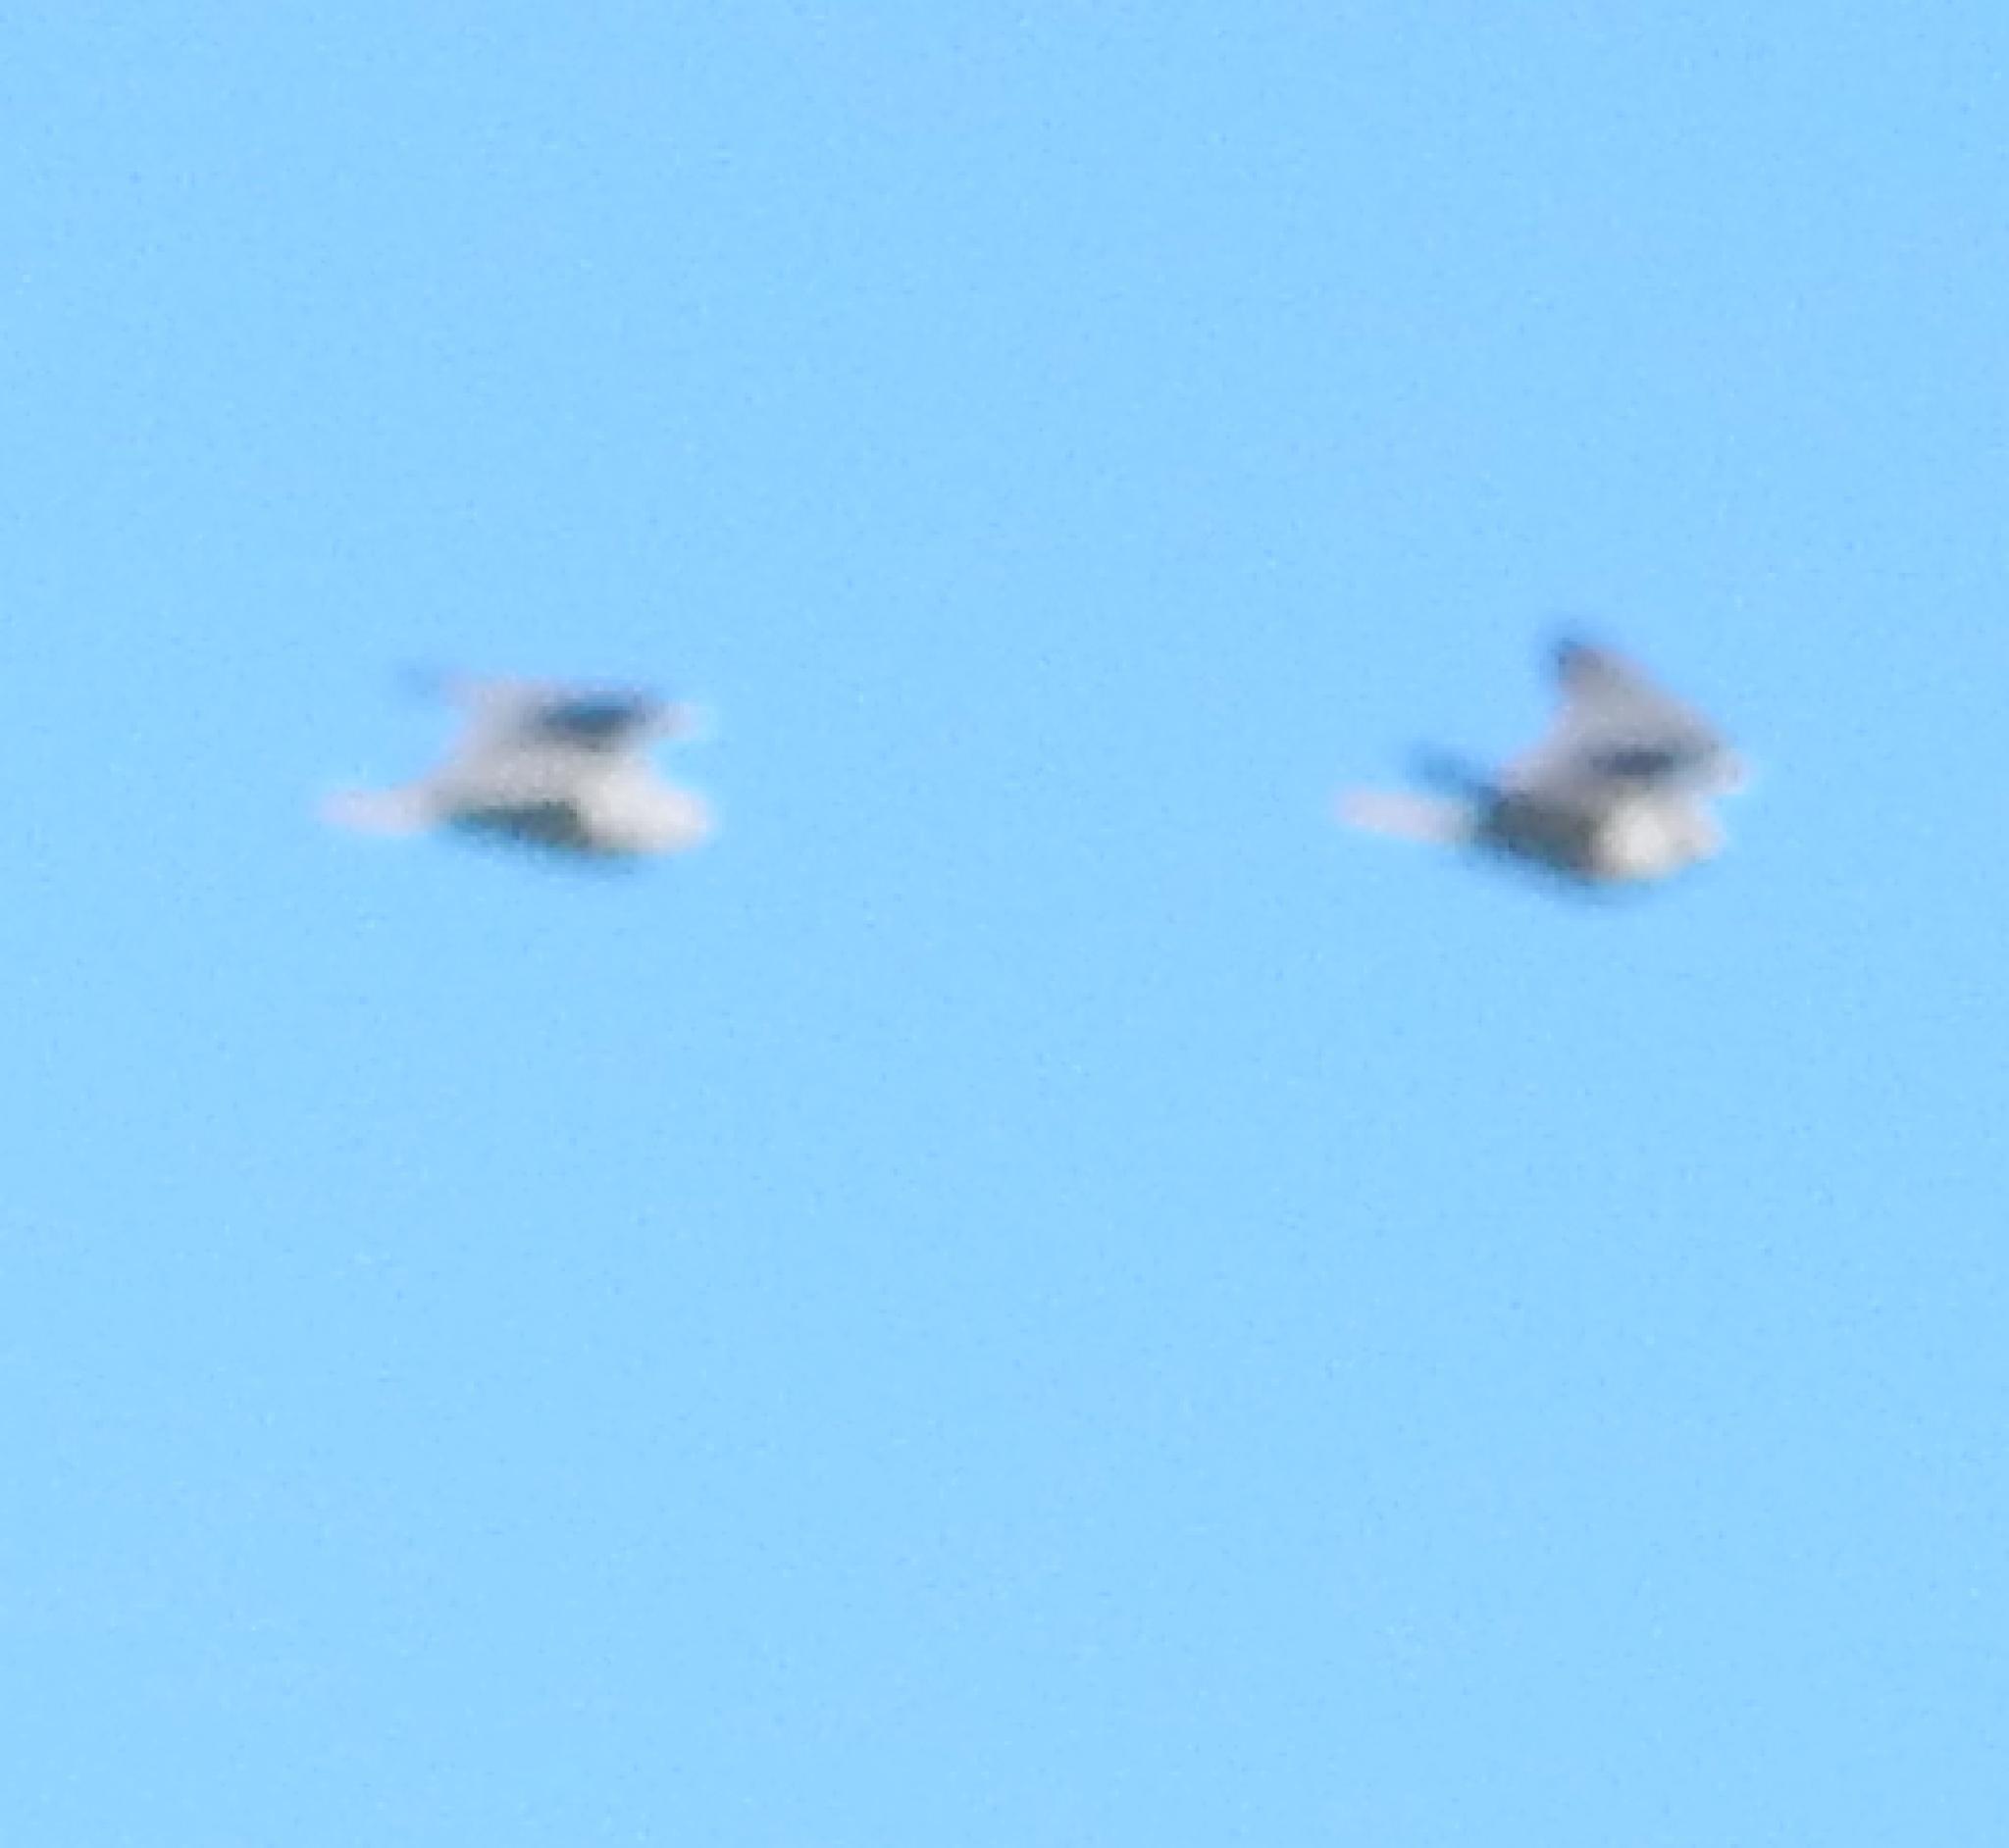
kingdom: Animalia
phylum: Chordata
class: Aves
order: Accipitriformes
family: Accipitridae
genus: Elanus
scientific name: Elanus caeruleus
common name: Black-winged kite
